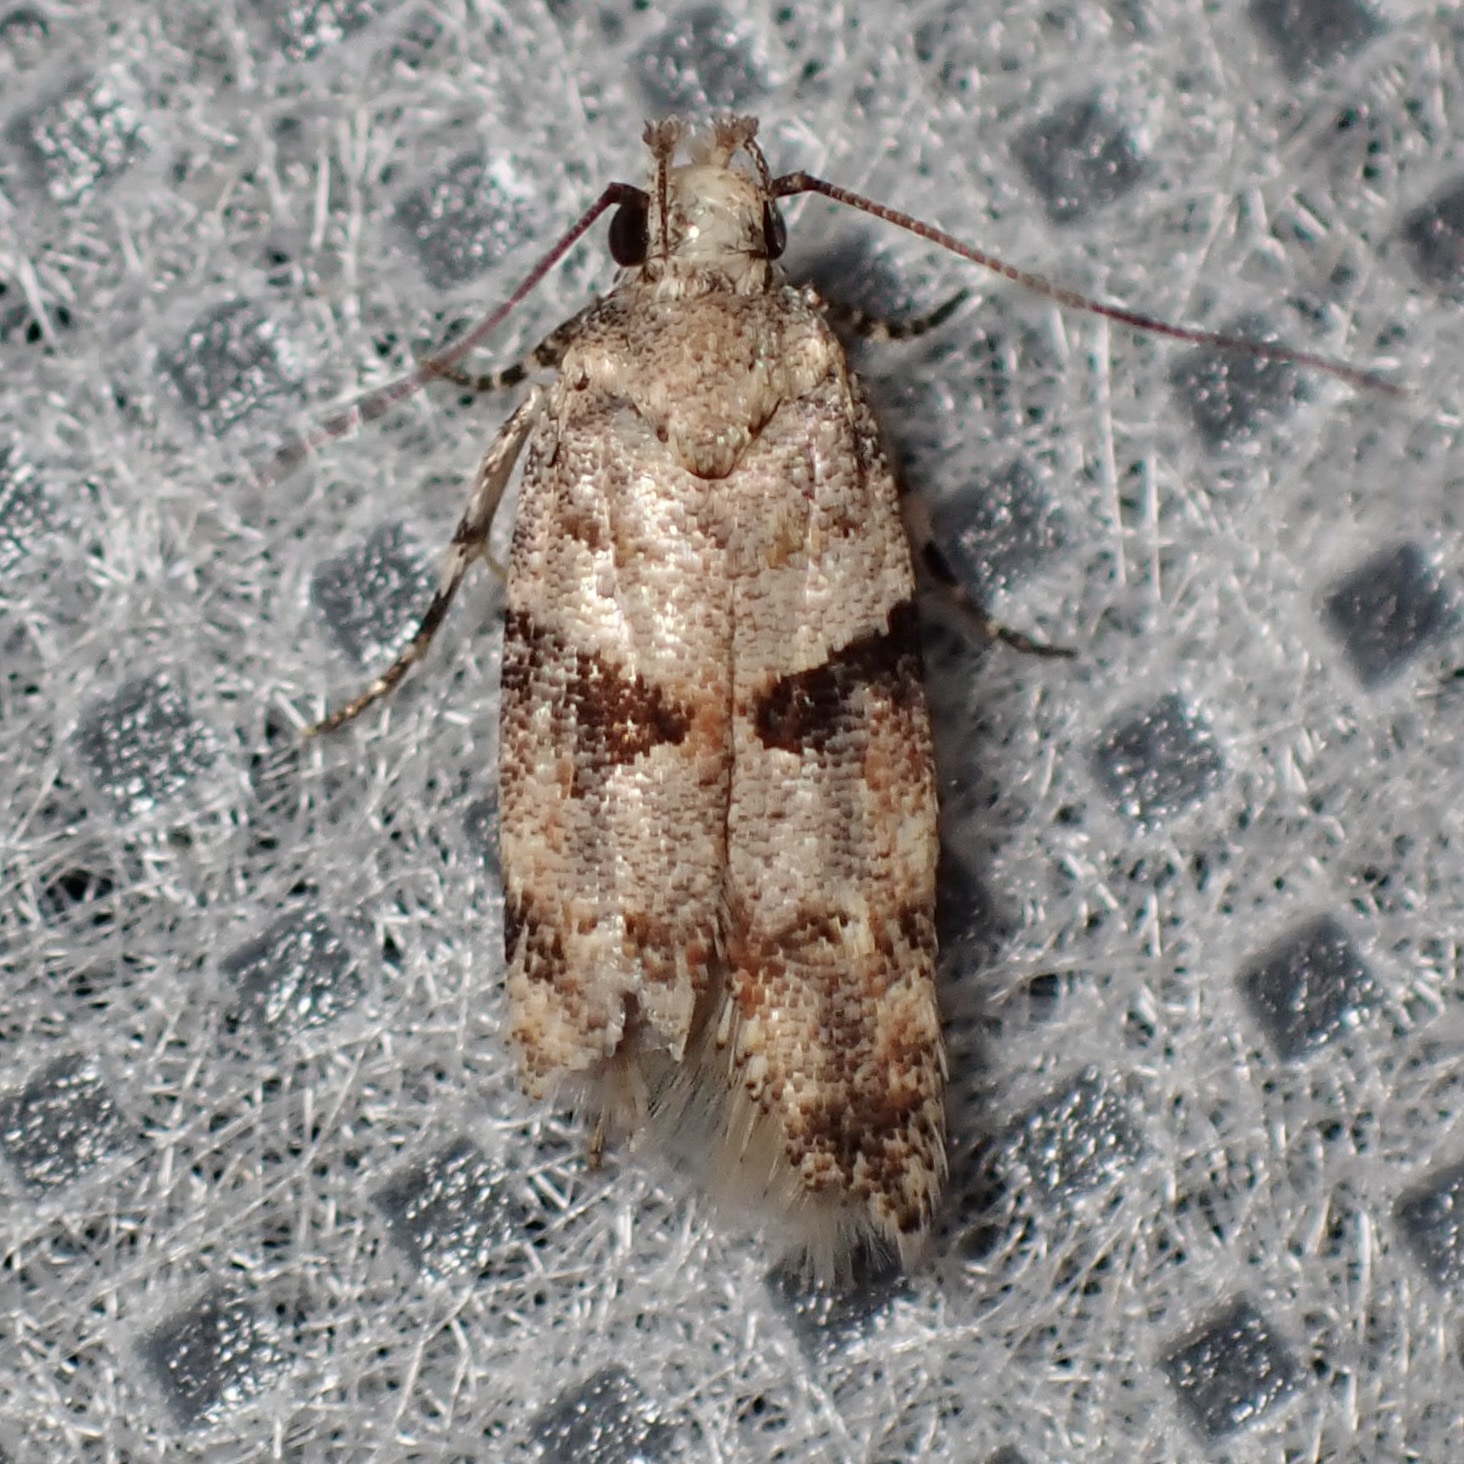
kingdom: Animalia
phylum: Arthropoda
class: Insecta
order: Lepidoptera
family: Gelechiidae
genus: Faculta
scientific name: Faculta inaequalis
